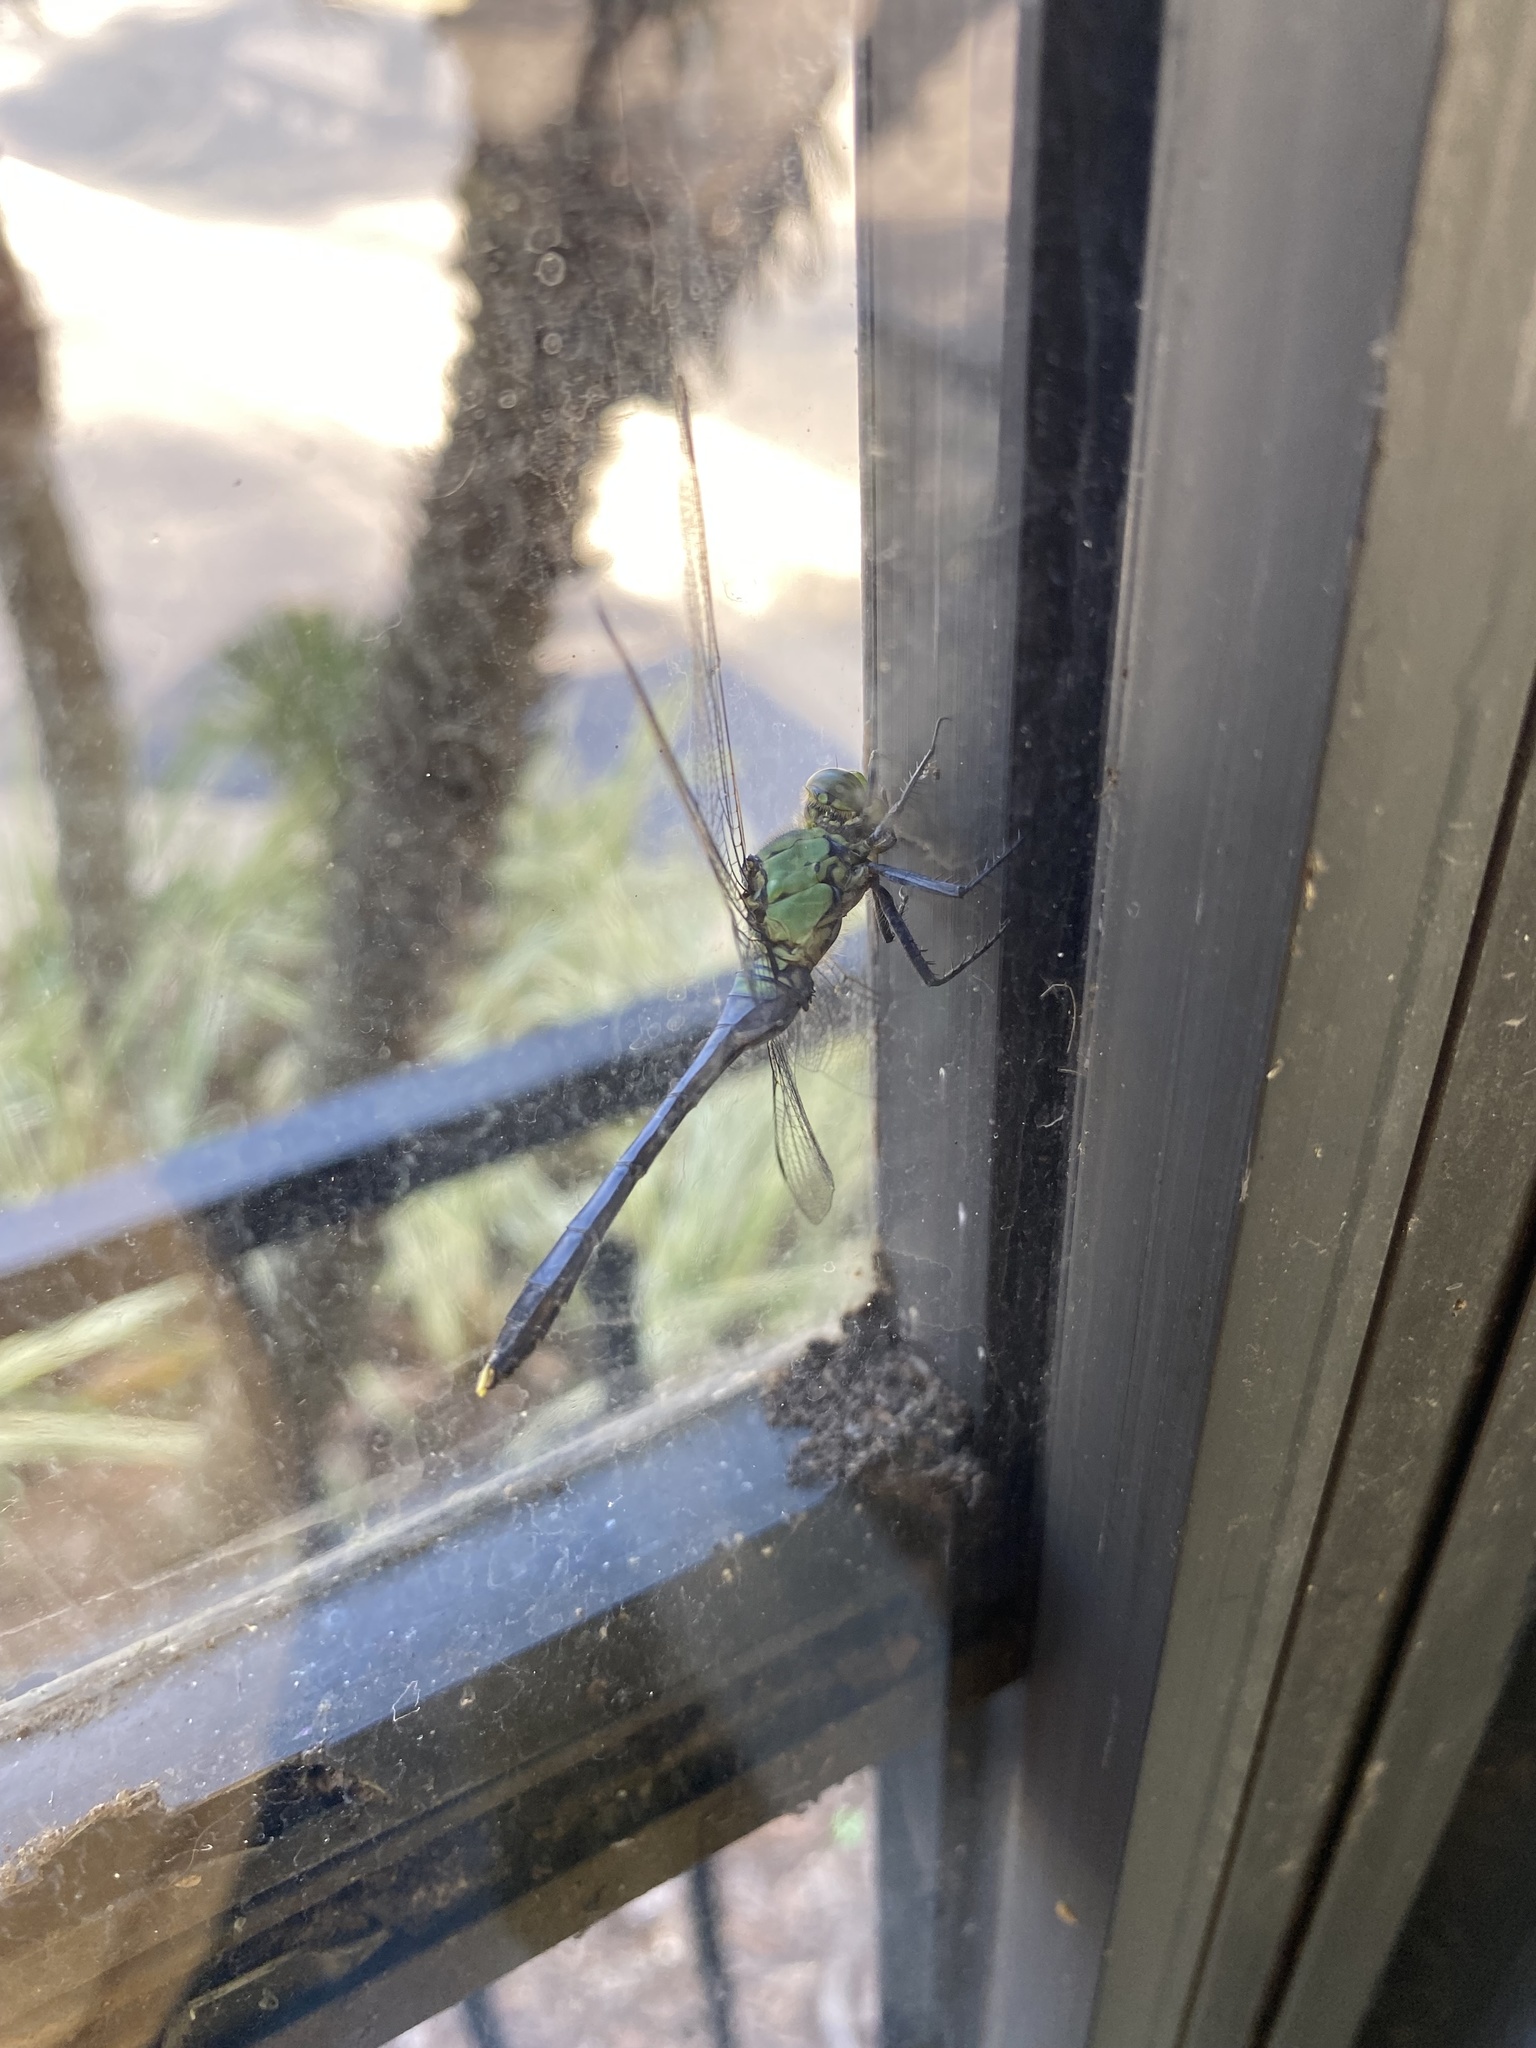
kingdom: Animalia
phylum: Arthropoda
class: Insecta
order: Odonata
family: Libellulidae
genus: Erythemis
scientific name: Erythemis simplicicollis
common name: Eastern pondhawk
